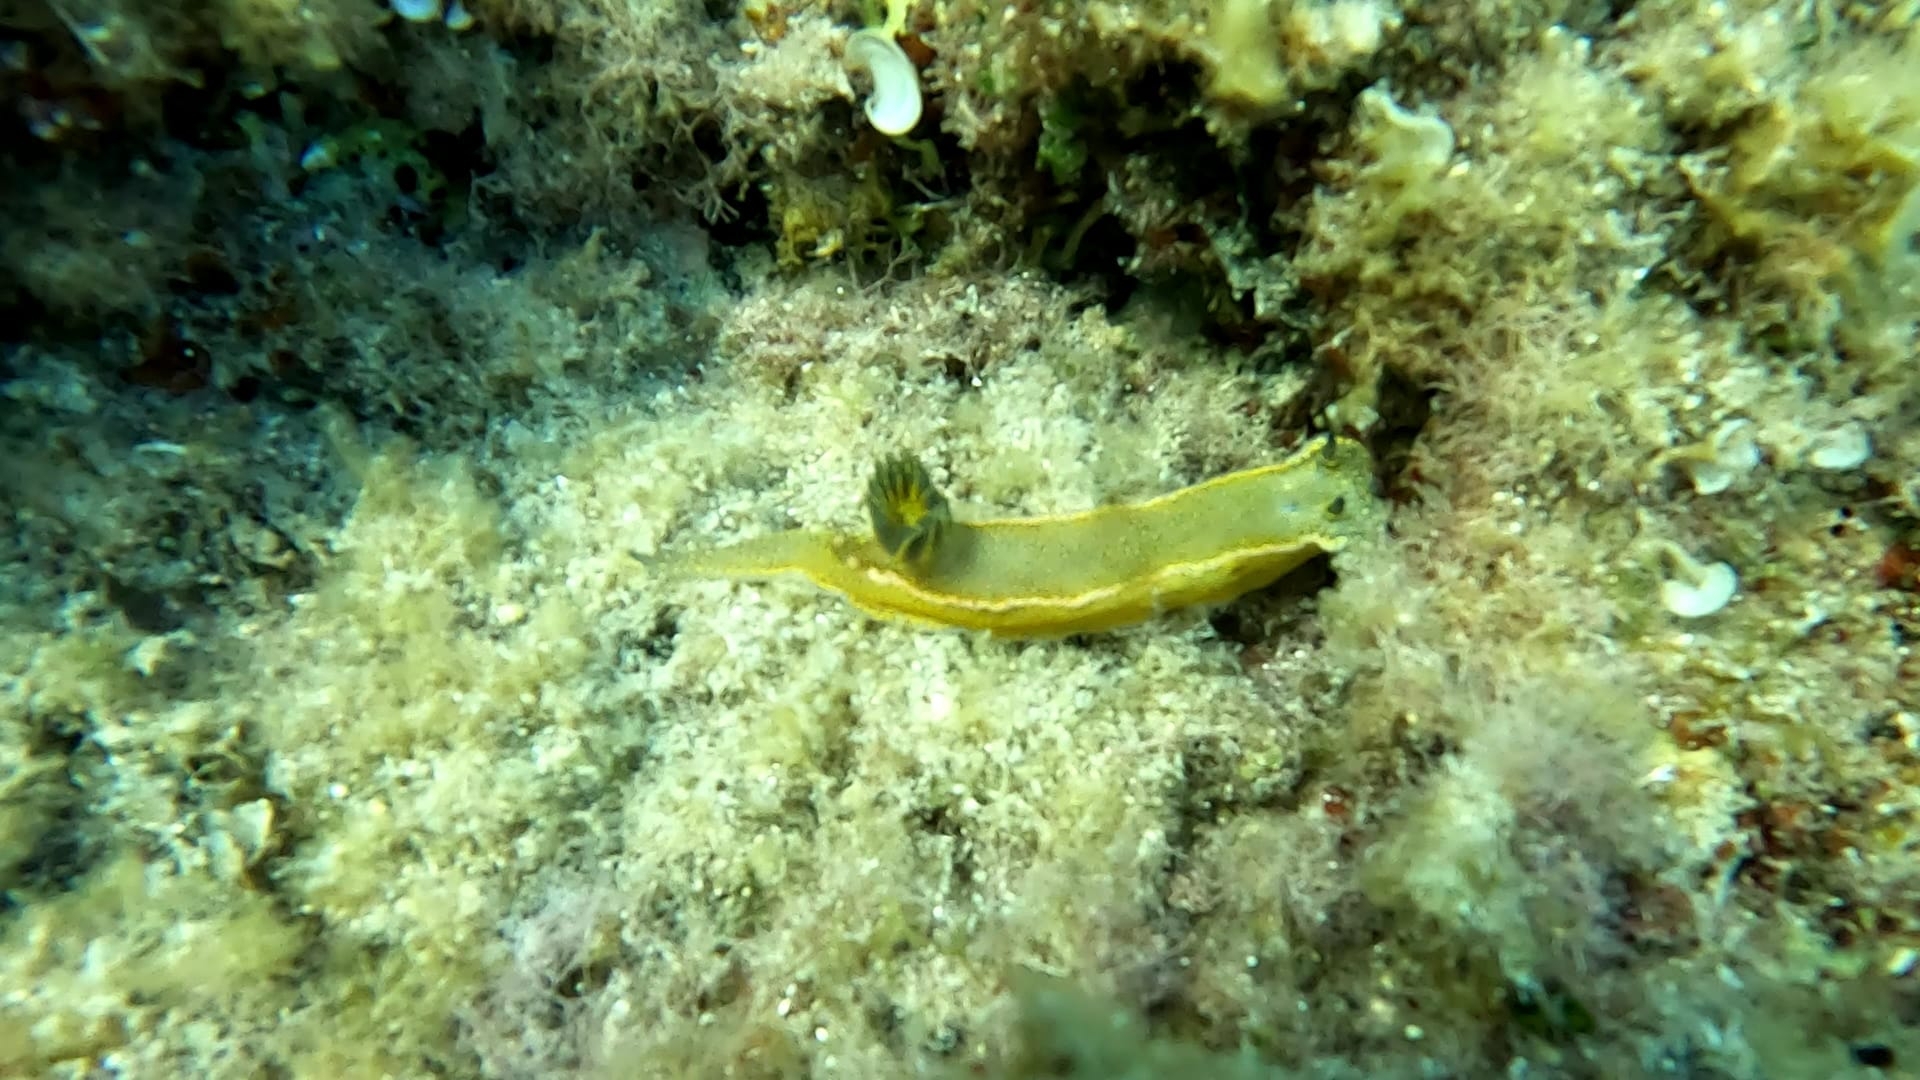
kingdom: Animalia
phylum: Mollusca
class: Gastropoda
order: Nudibranchia
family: Chromodorididae
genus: Felimare
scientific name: Felimare picta
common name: Giant doris
